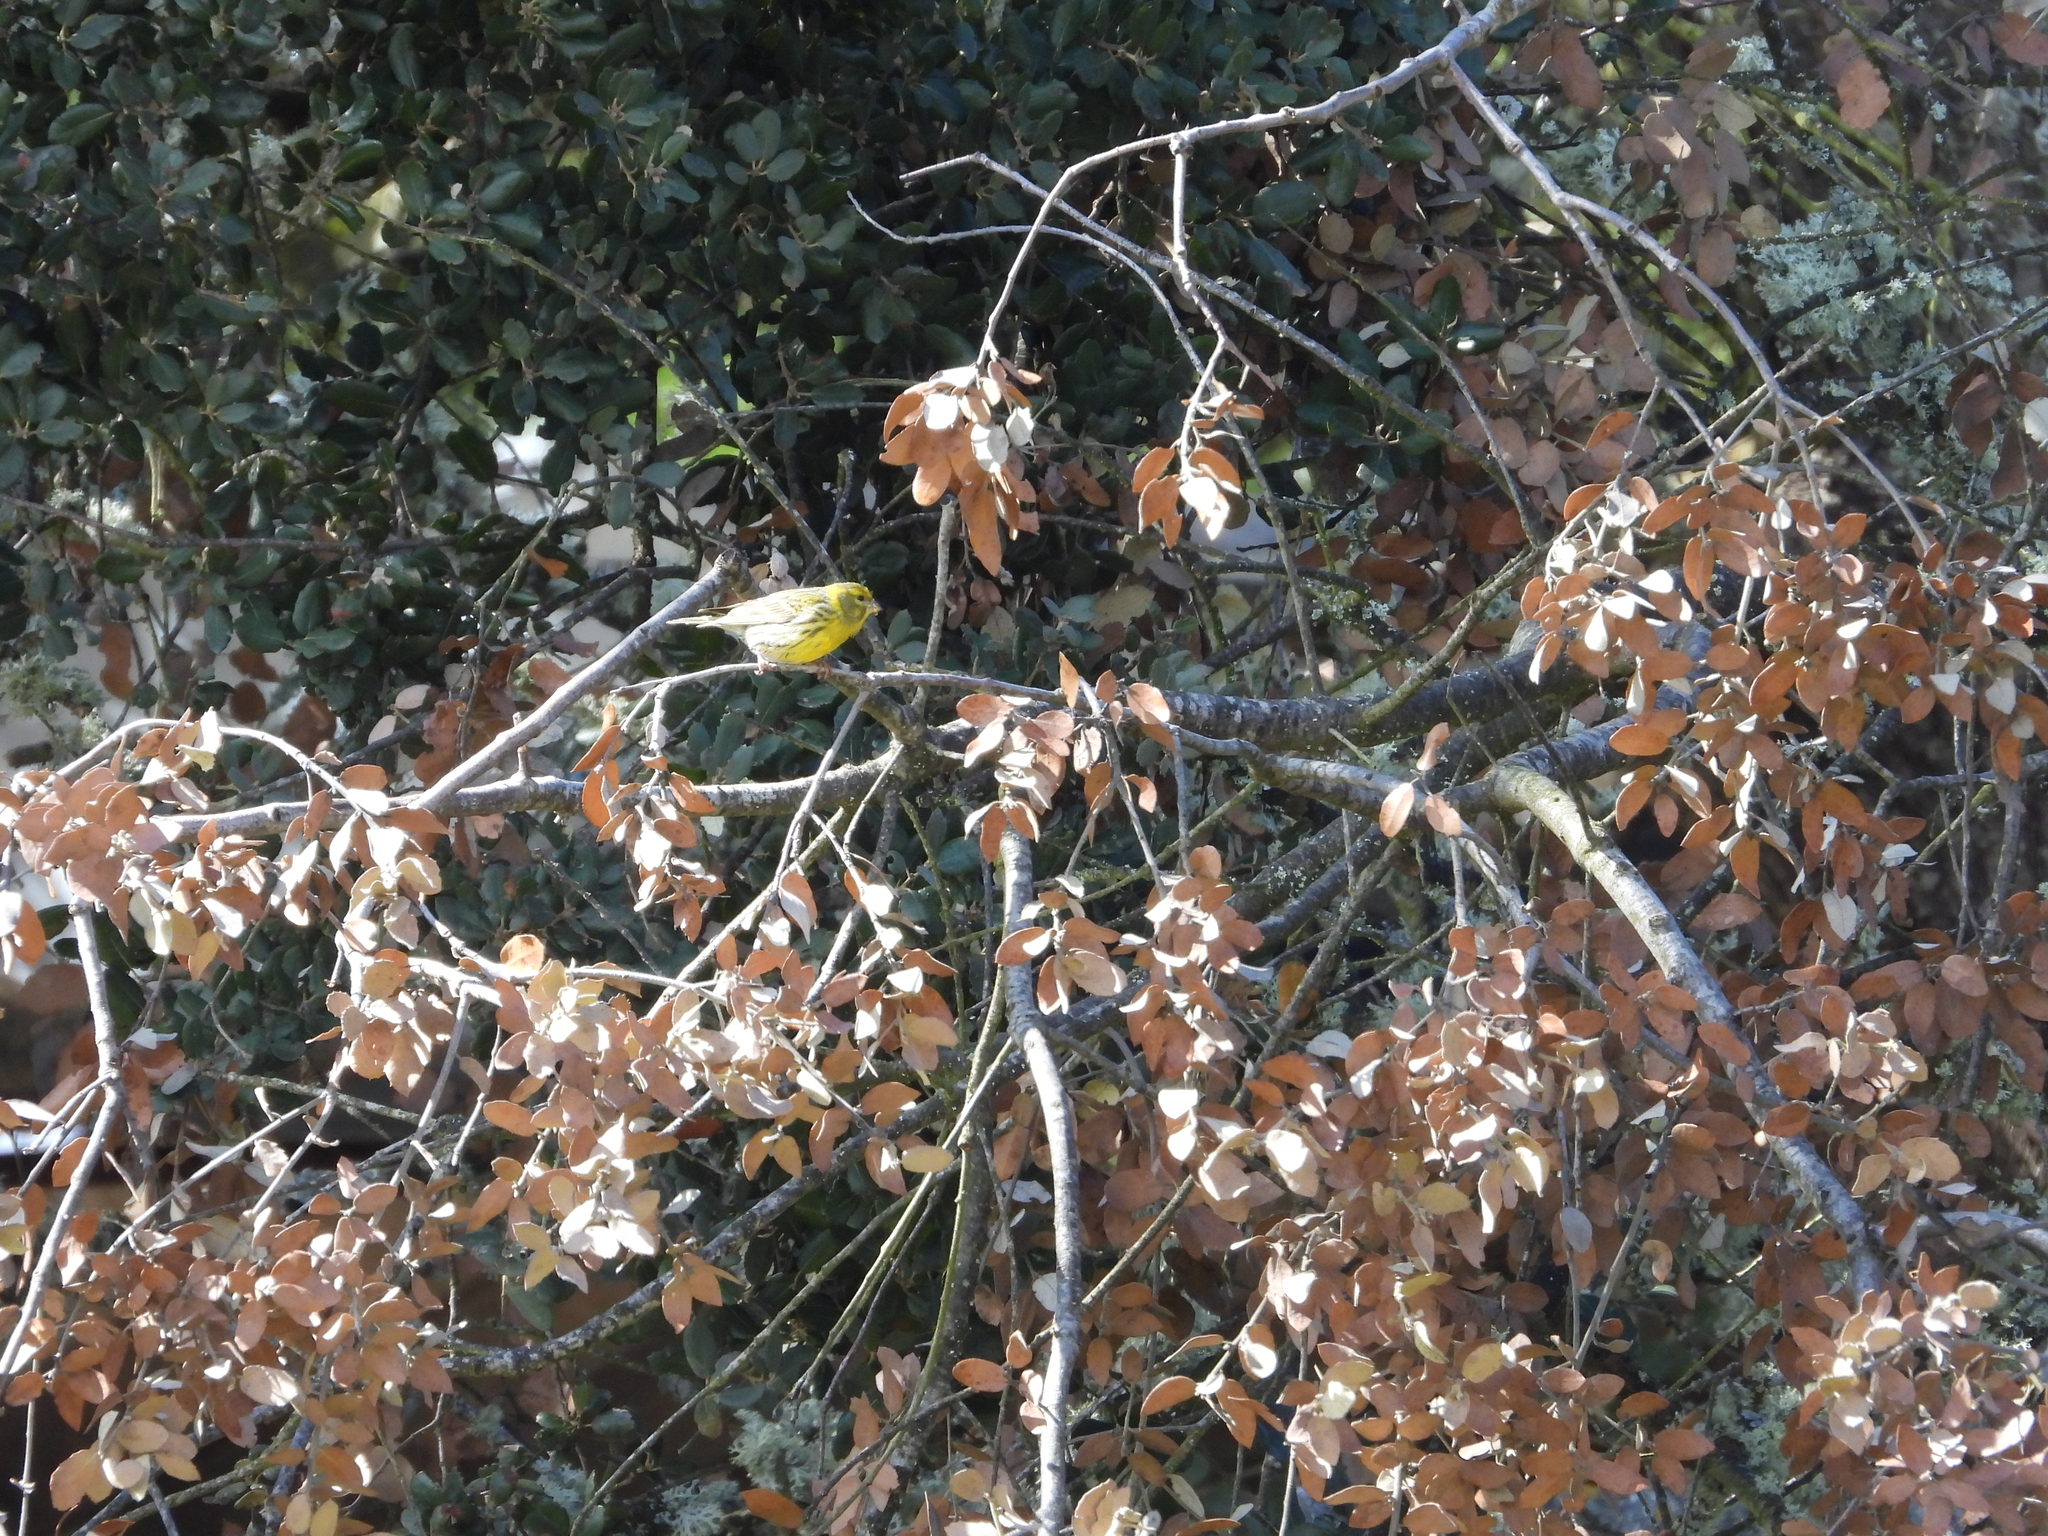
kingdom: Animalia
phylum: Chordata
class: Aves
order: Passeriformes
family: Fringillidae
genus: Serinus
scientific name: Serinus serinus
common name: European serin
